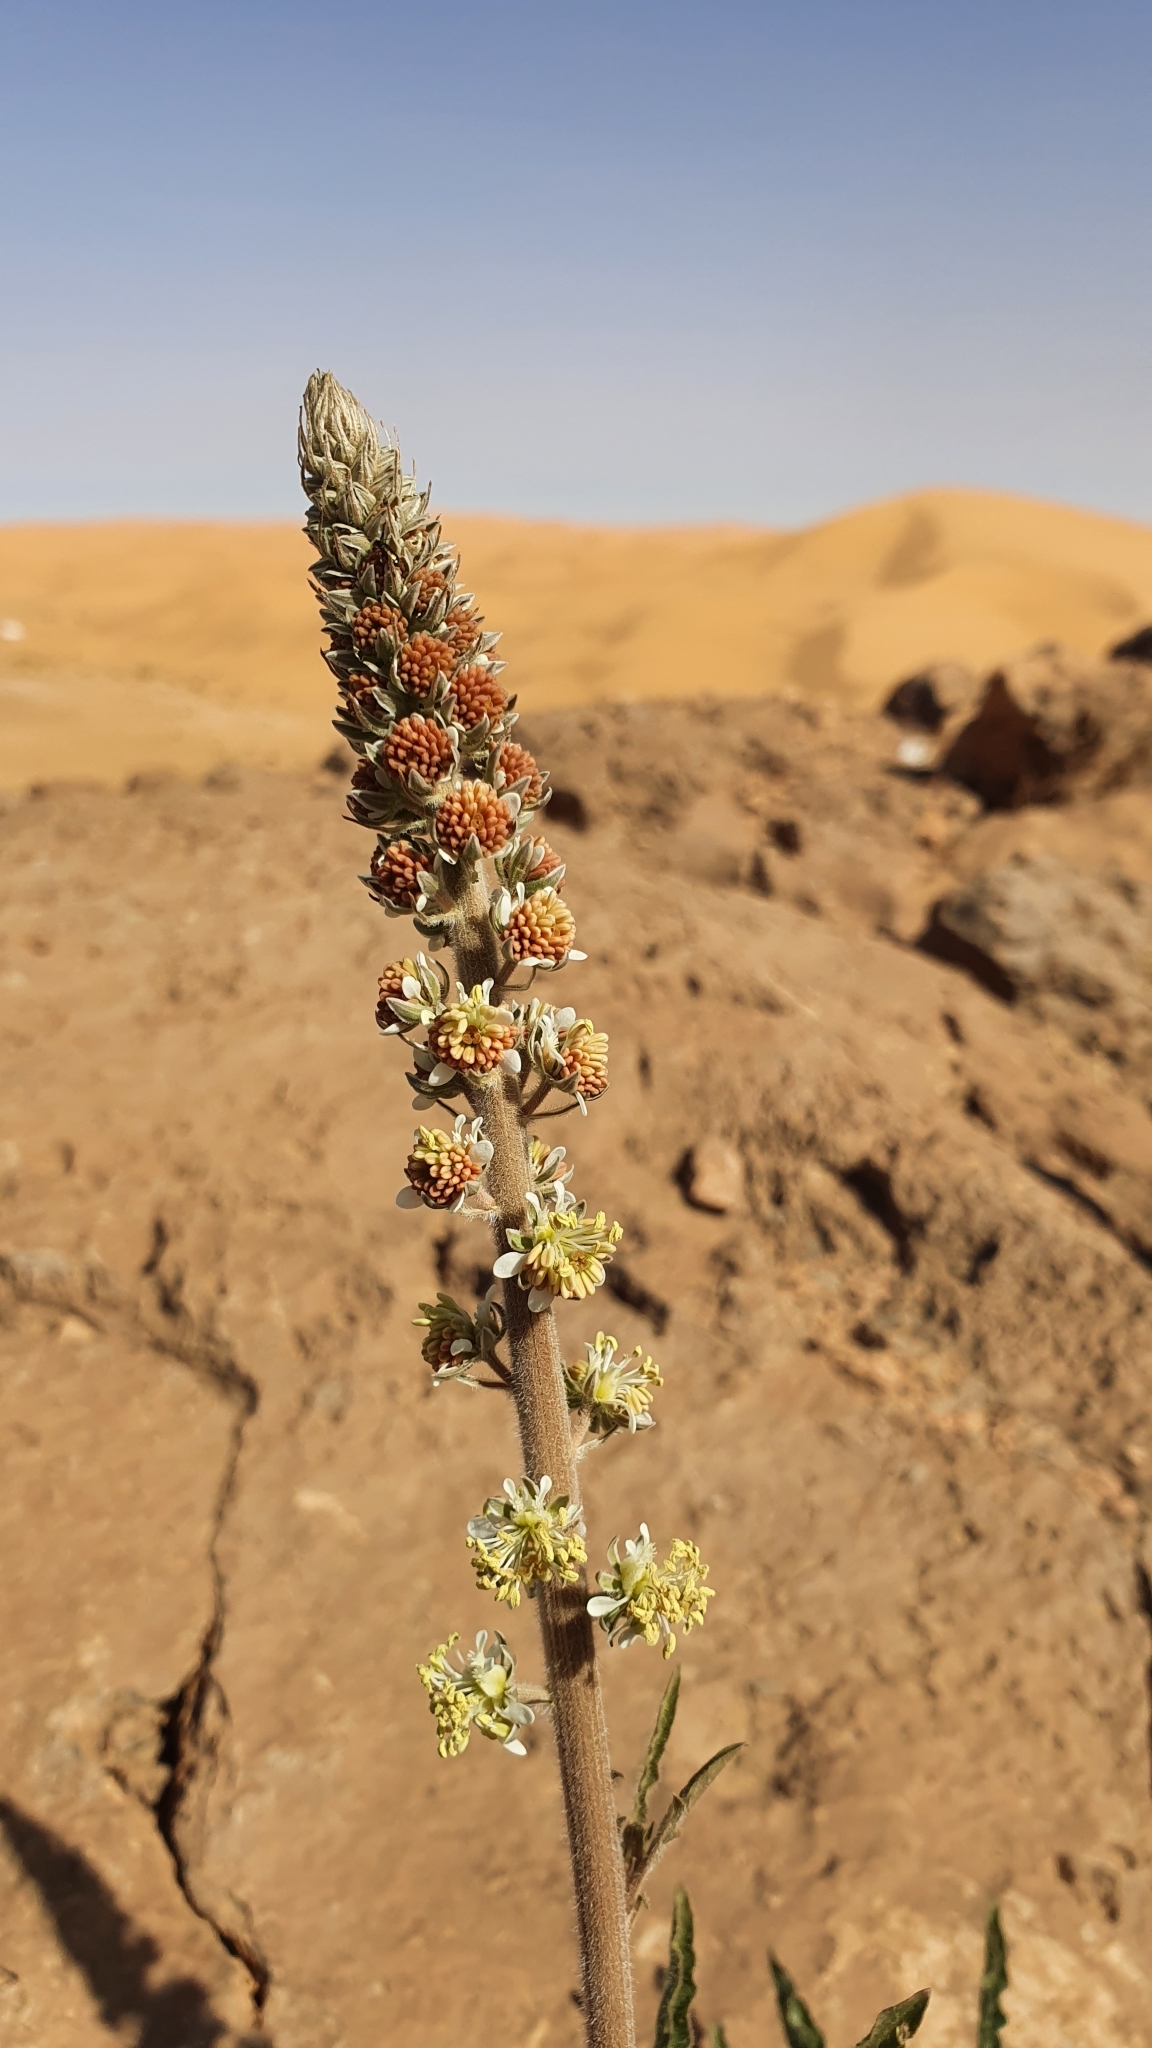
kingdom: Plantae
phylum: Tracheophyta
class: Magnoliopsida
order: Brassicales
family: Resedaceae
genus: Reseda
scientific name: Reseda villosa
